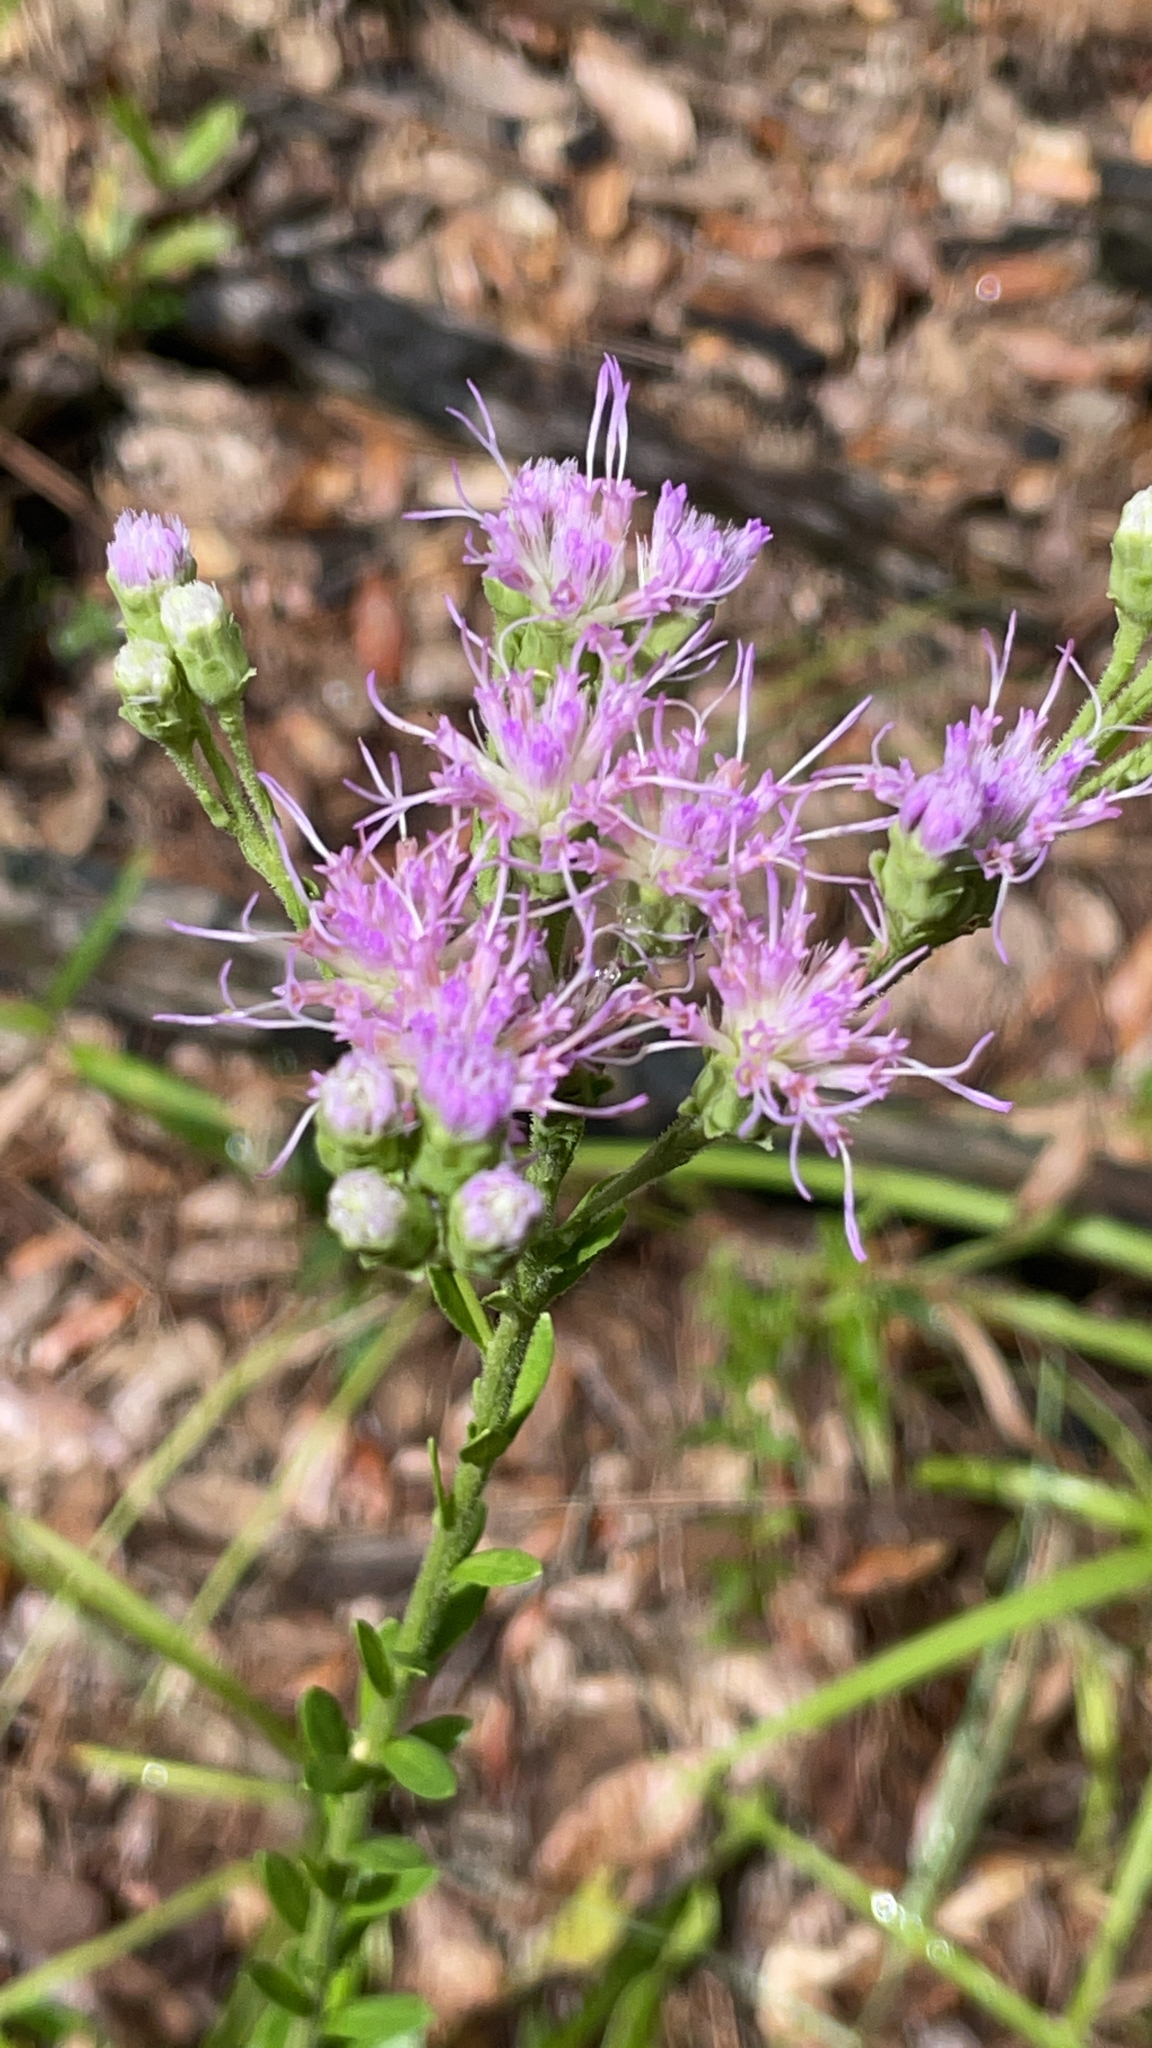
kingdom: Plantae
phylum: Tracheophyta
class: Magnoliopsida
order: Asterales
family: Asteraceae
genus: Carphephorus
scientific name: Carphephorus corymbosus
